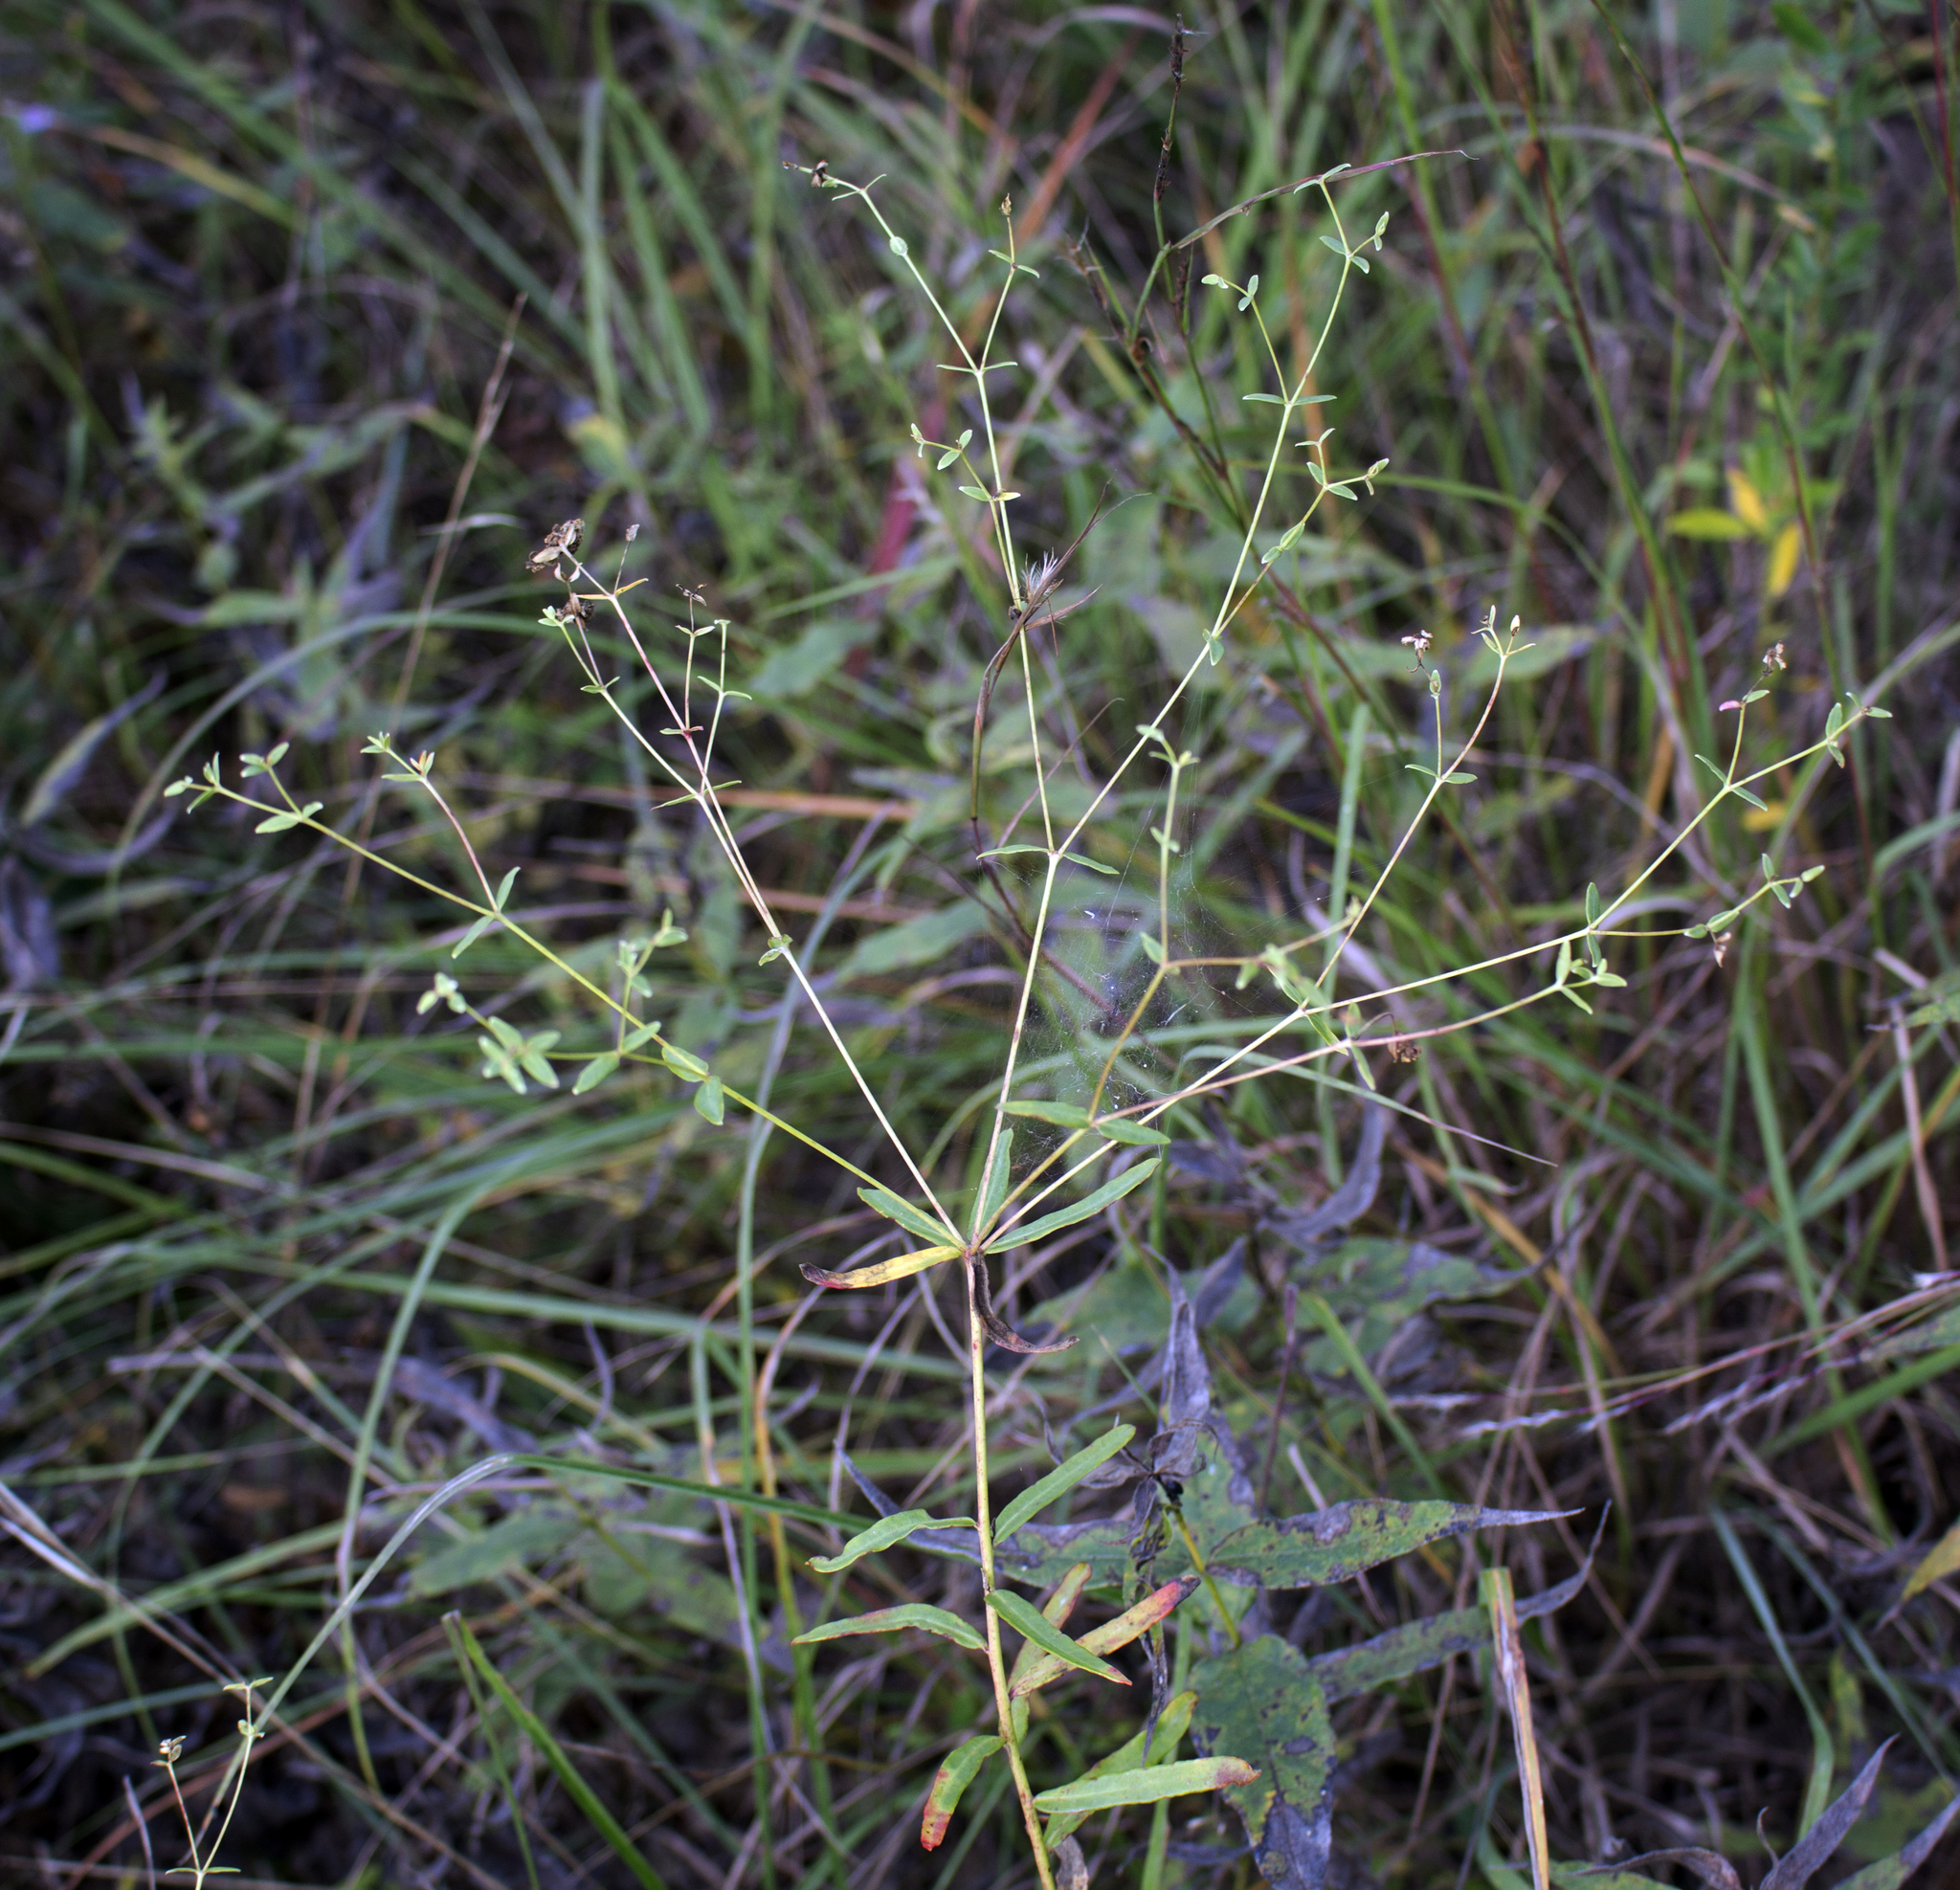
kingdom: Plantae
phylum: Tracheophyta
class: Magnoliopsida
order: Malpighiales
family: Euphorbiaceae
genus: Euphorbia
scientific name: Euphorbia corollata
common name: Flowering spurge
